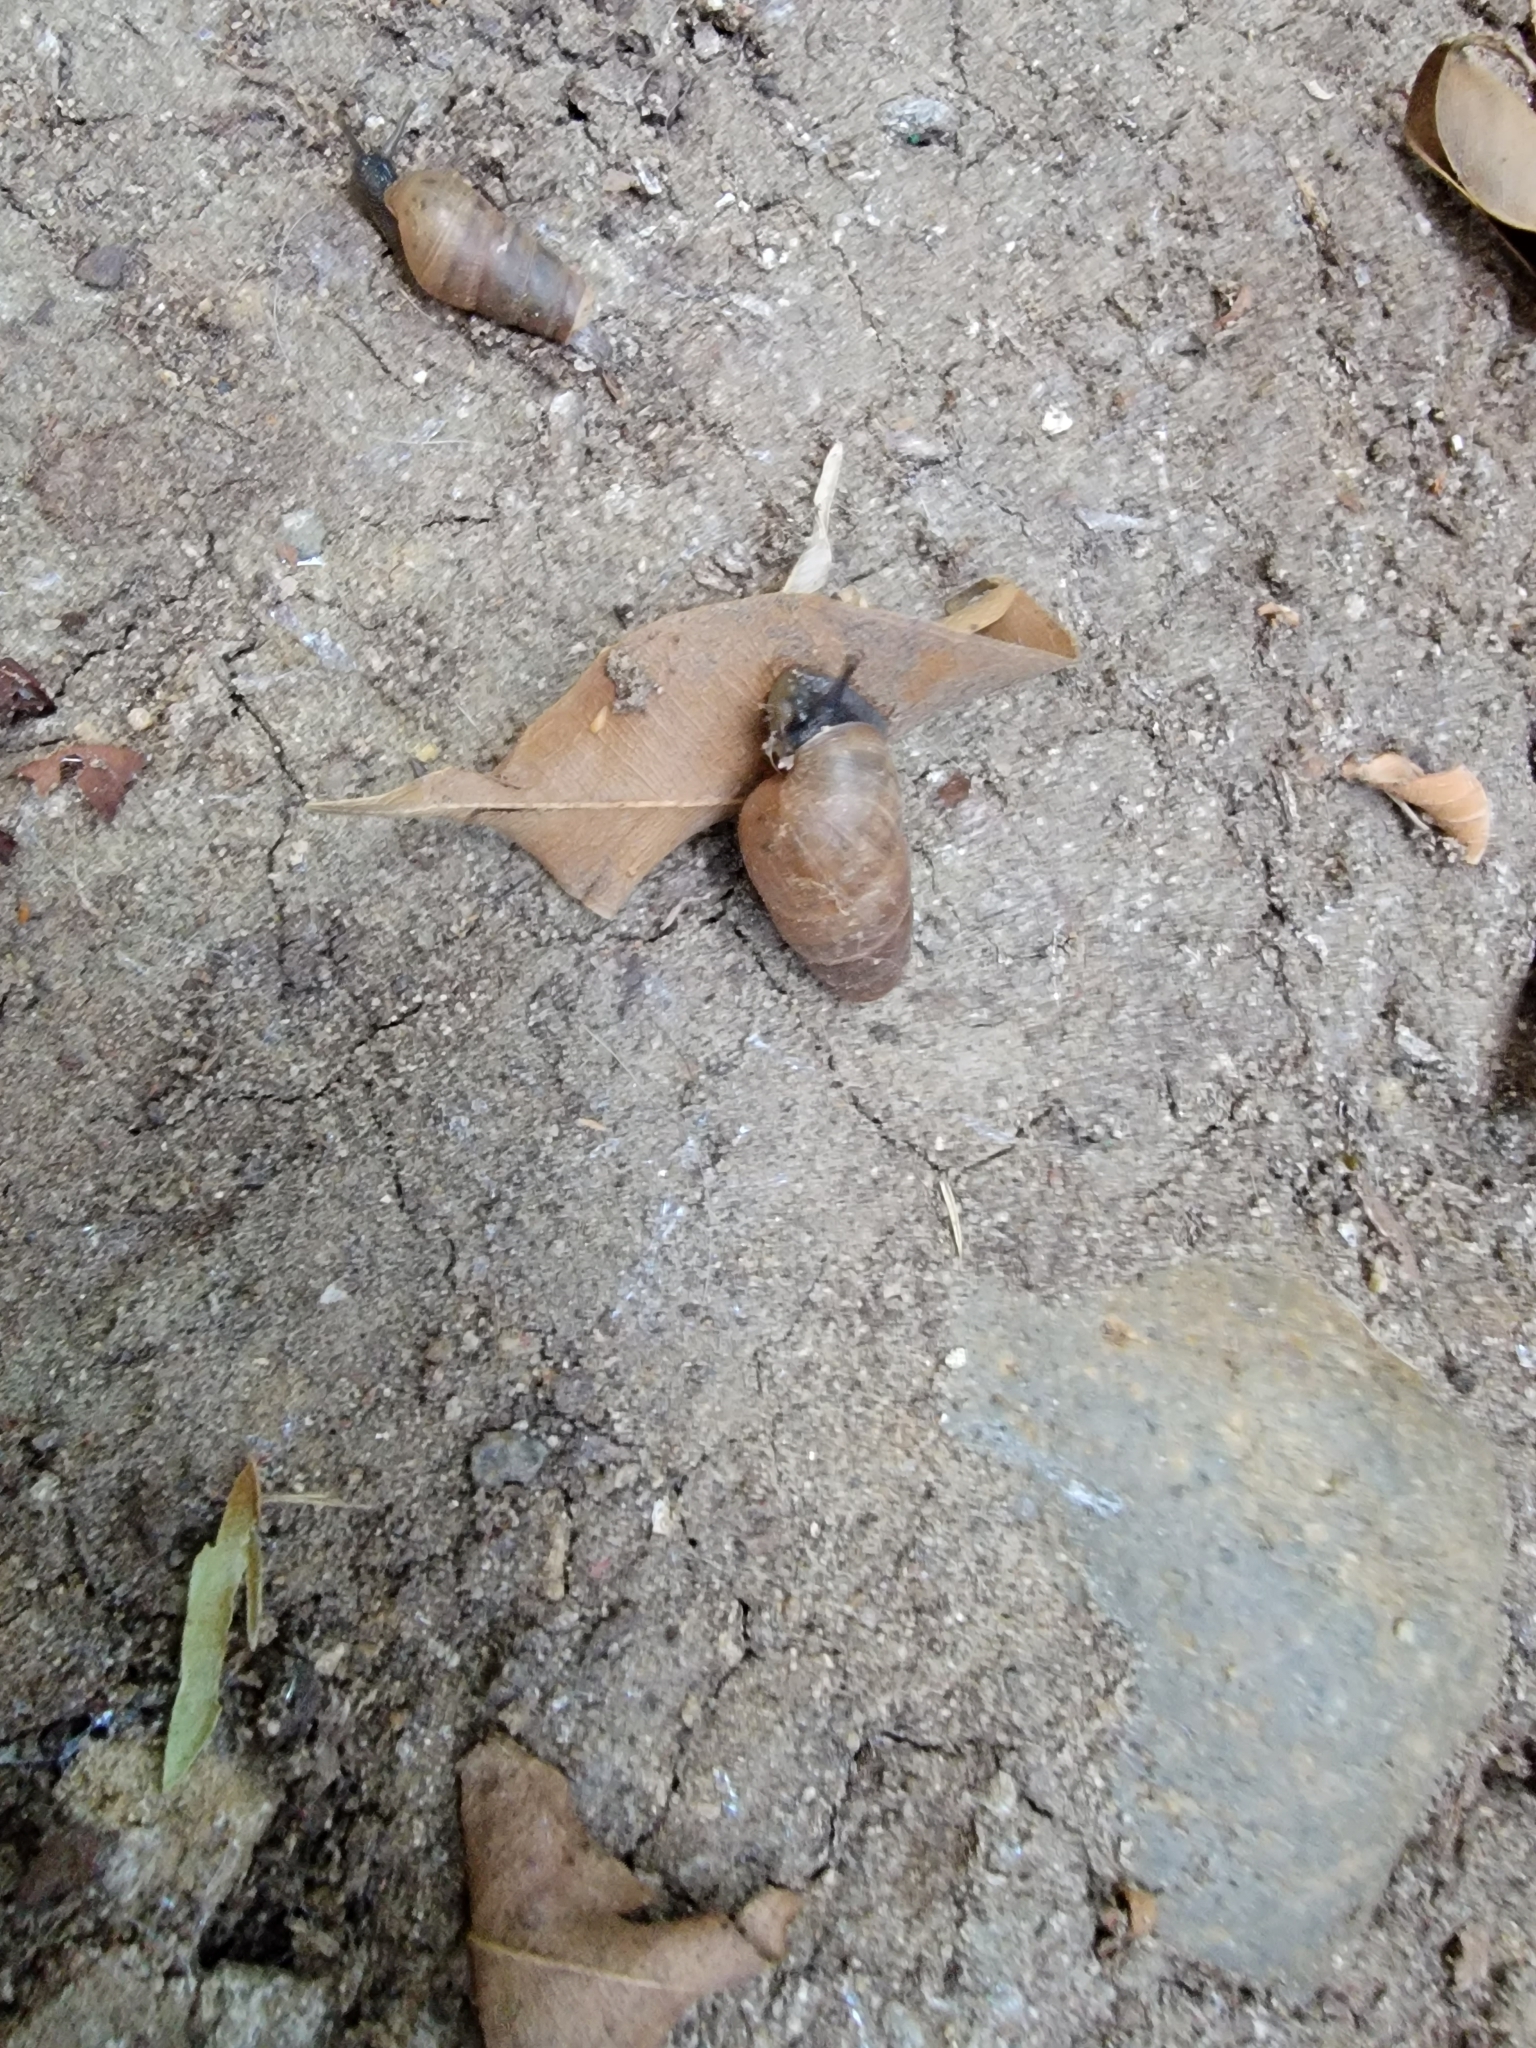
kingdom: Animalia
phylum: Mollusca
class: Gastropoda
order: Stylommatophora
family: Achatinidae
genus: Rumina
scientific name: Rumina decollata
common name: Decollate snail
